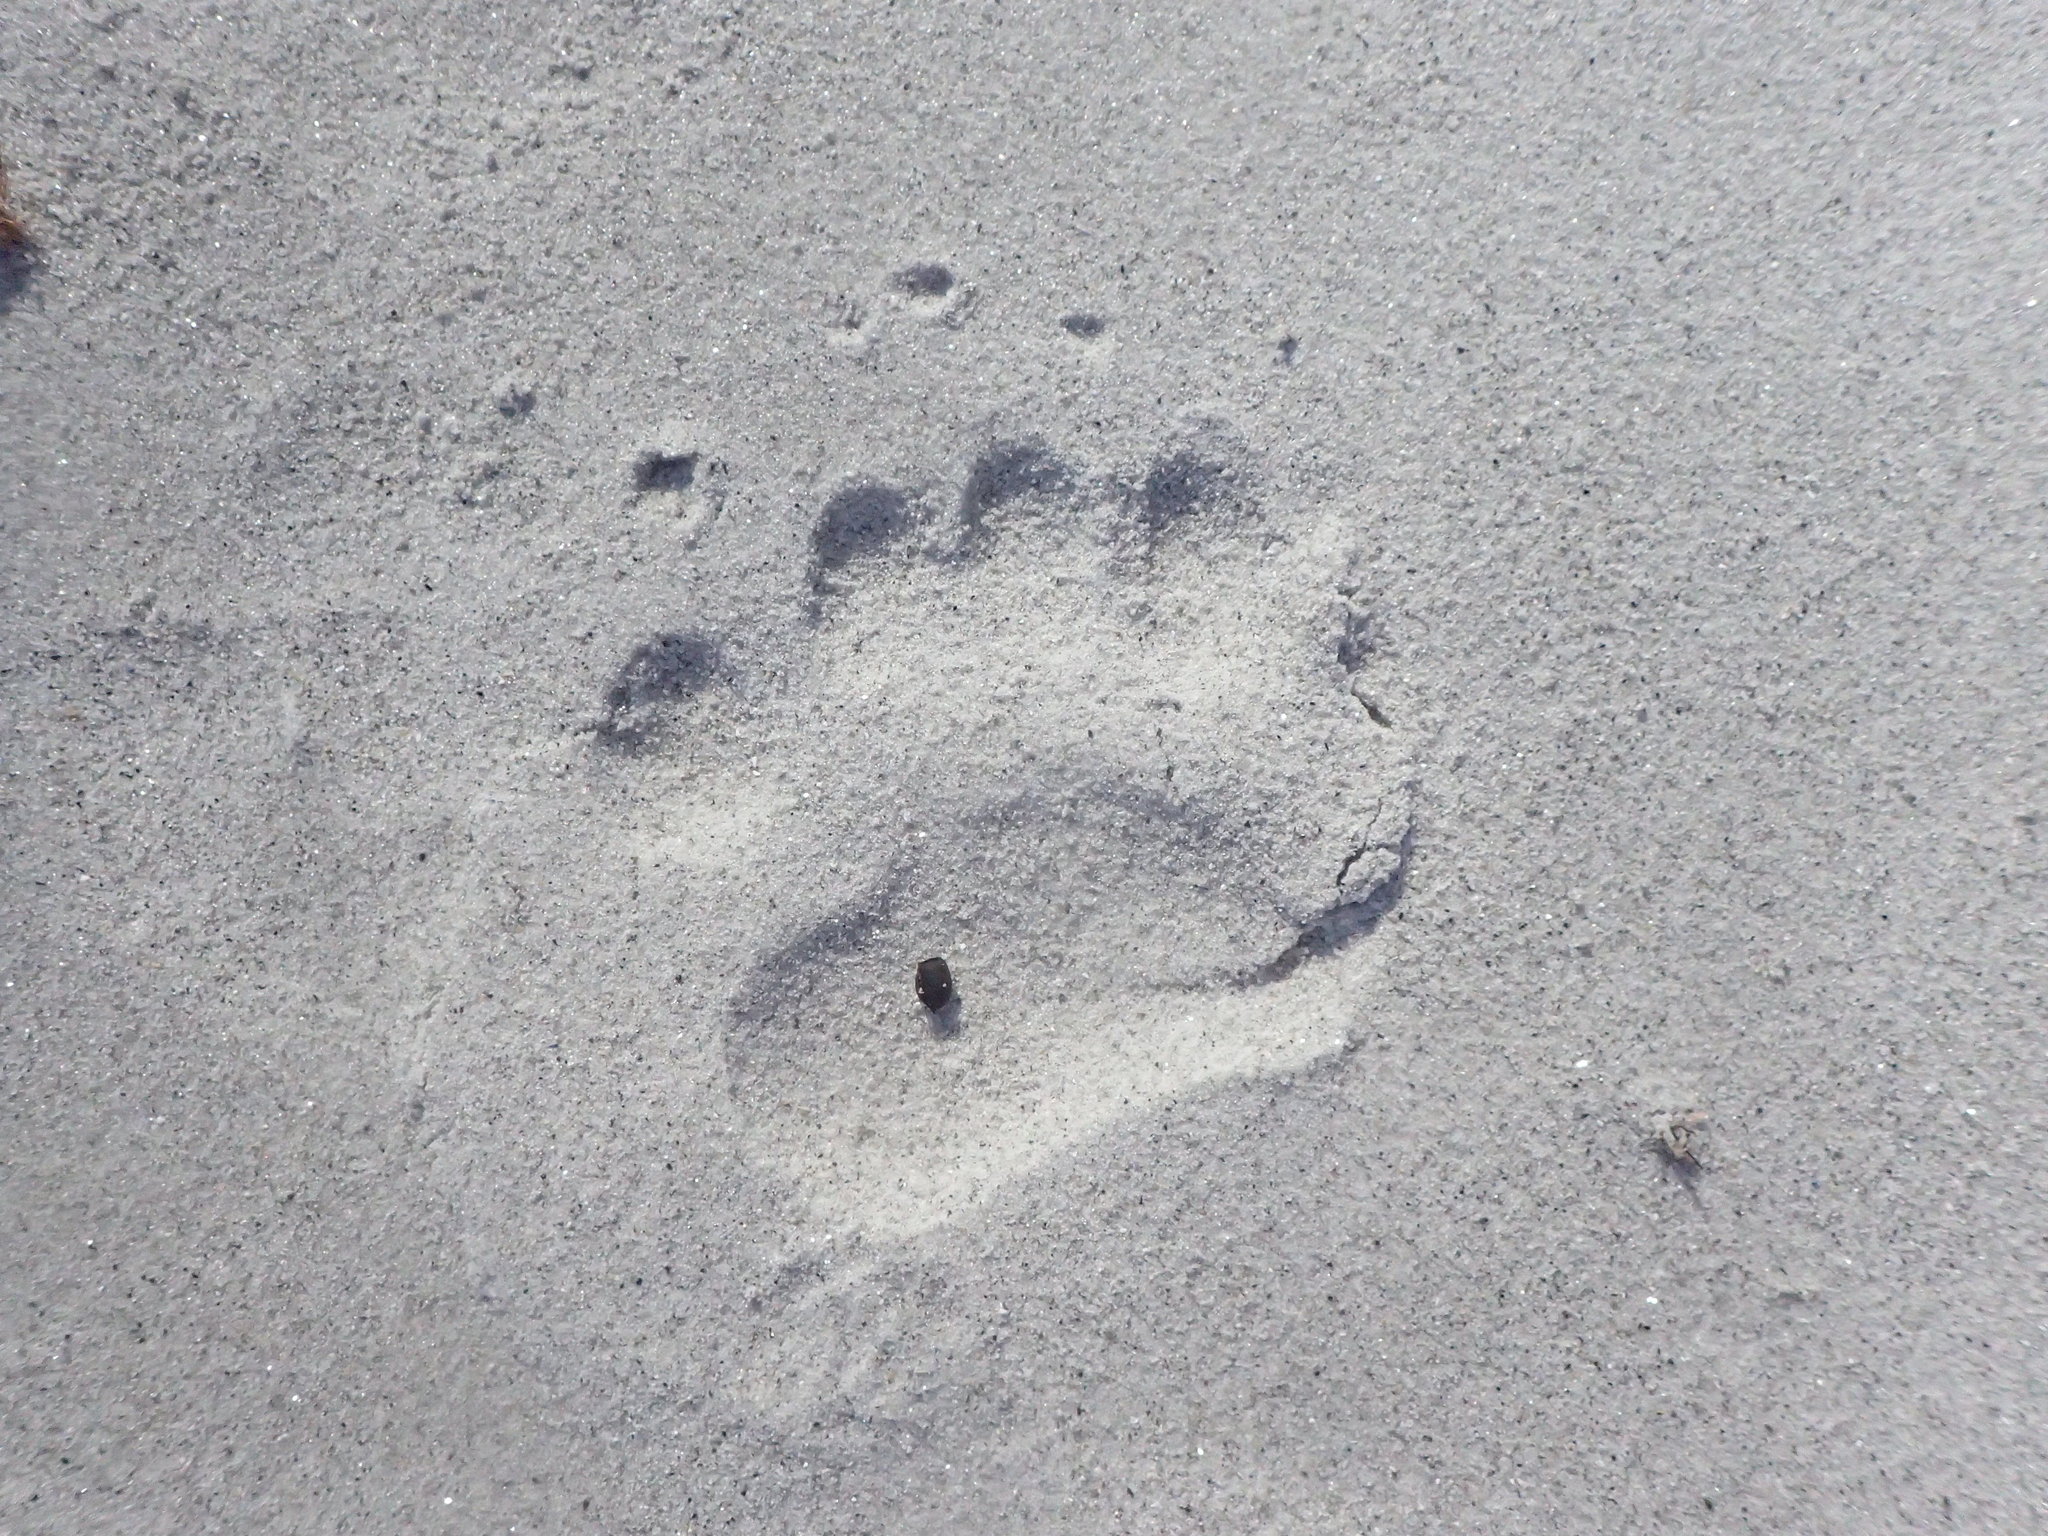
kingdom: Animalia
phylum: Chordata
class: Mammalia
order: Carnivora
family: Ursidae
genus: Ursus
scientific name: Ursus americanus
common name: American black bear
